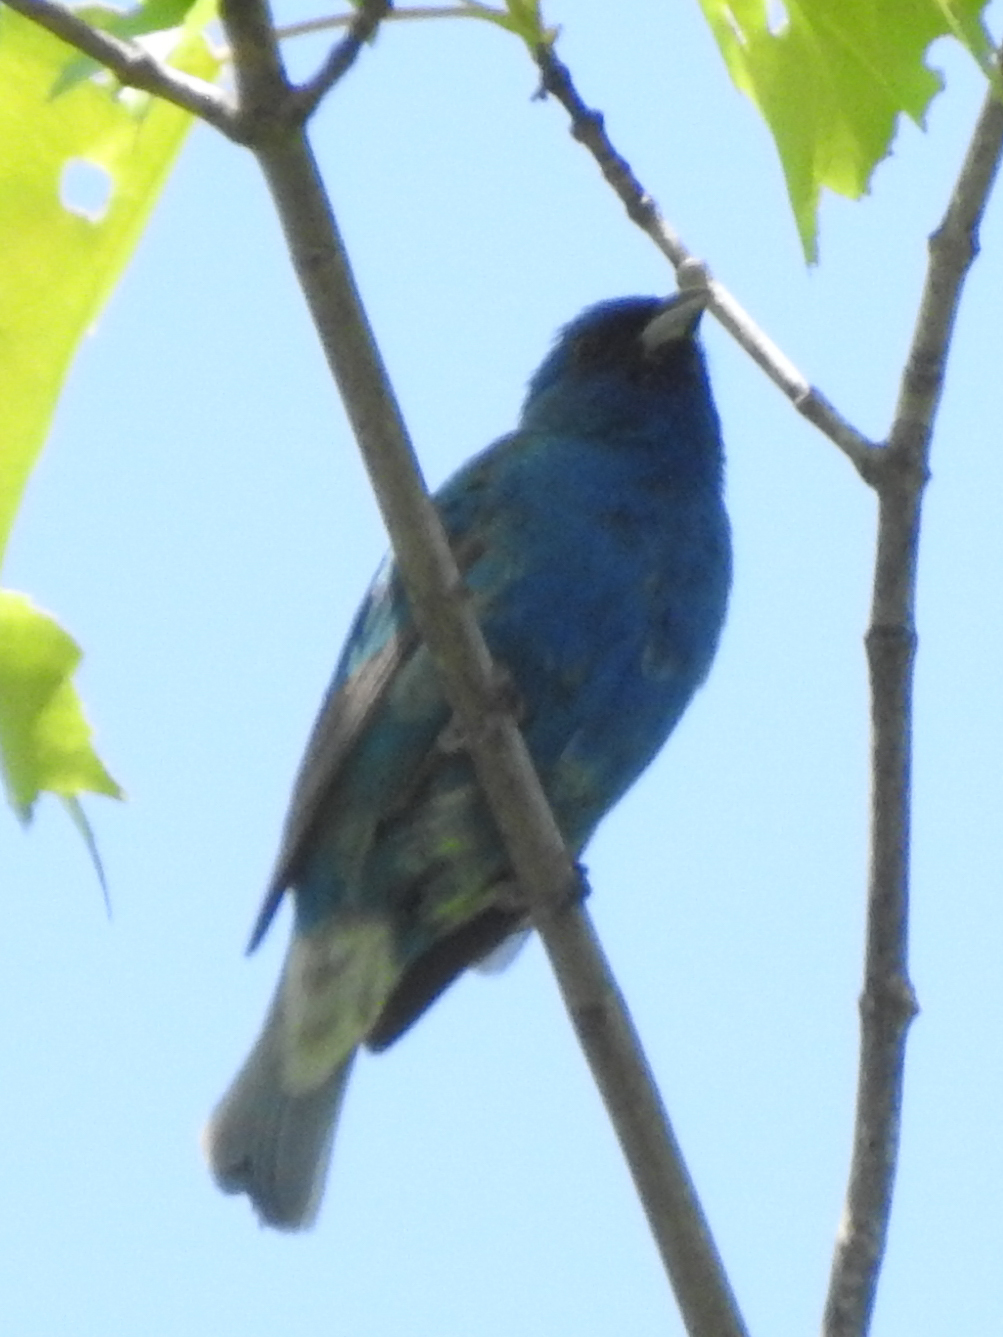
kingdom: Animalia
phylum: Chordata
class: Aves
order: Passeriformes
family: Cardinalidae
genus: Passerina
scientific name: Passerina cyanea
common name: Indigo bunting
